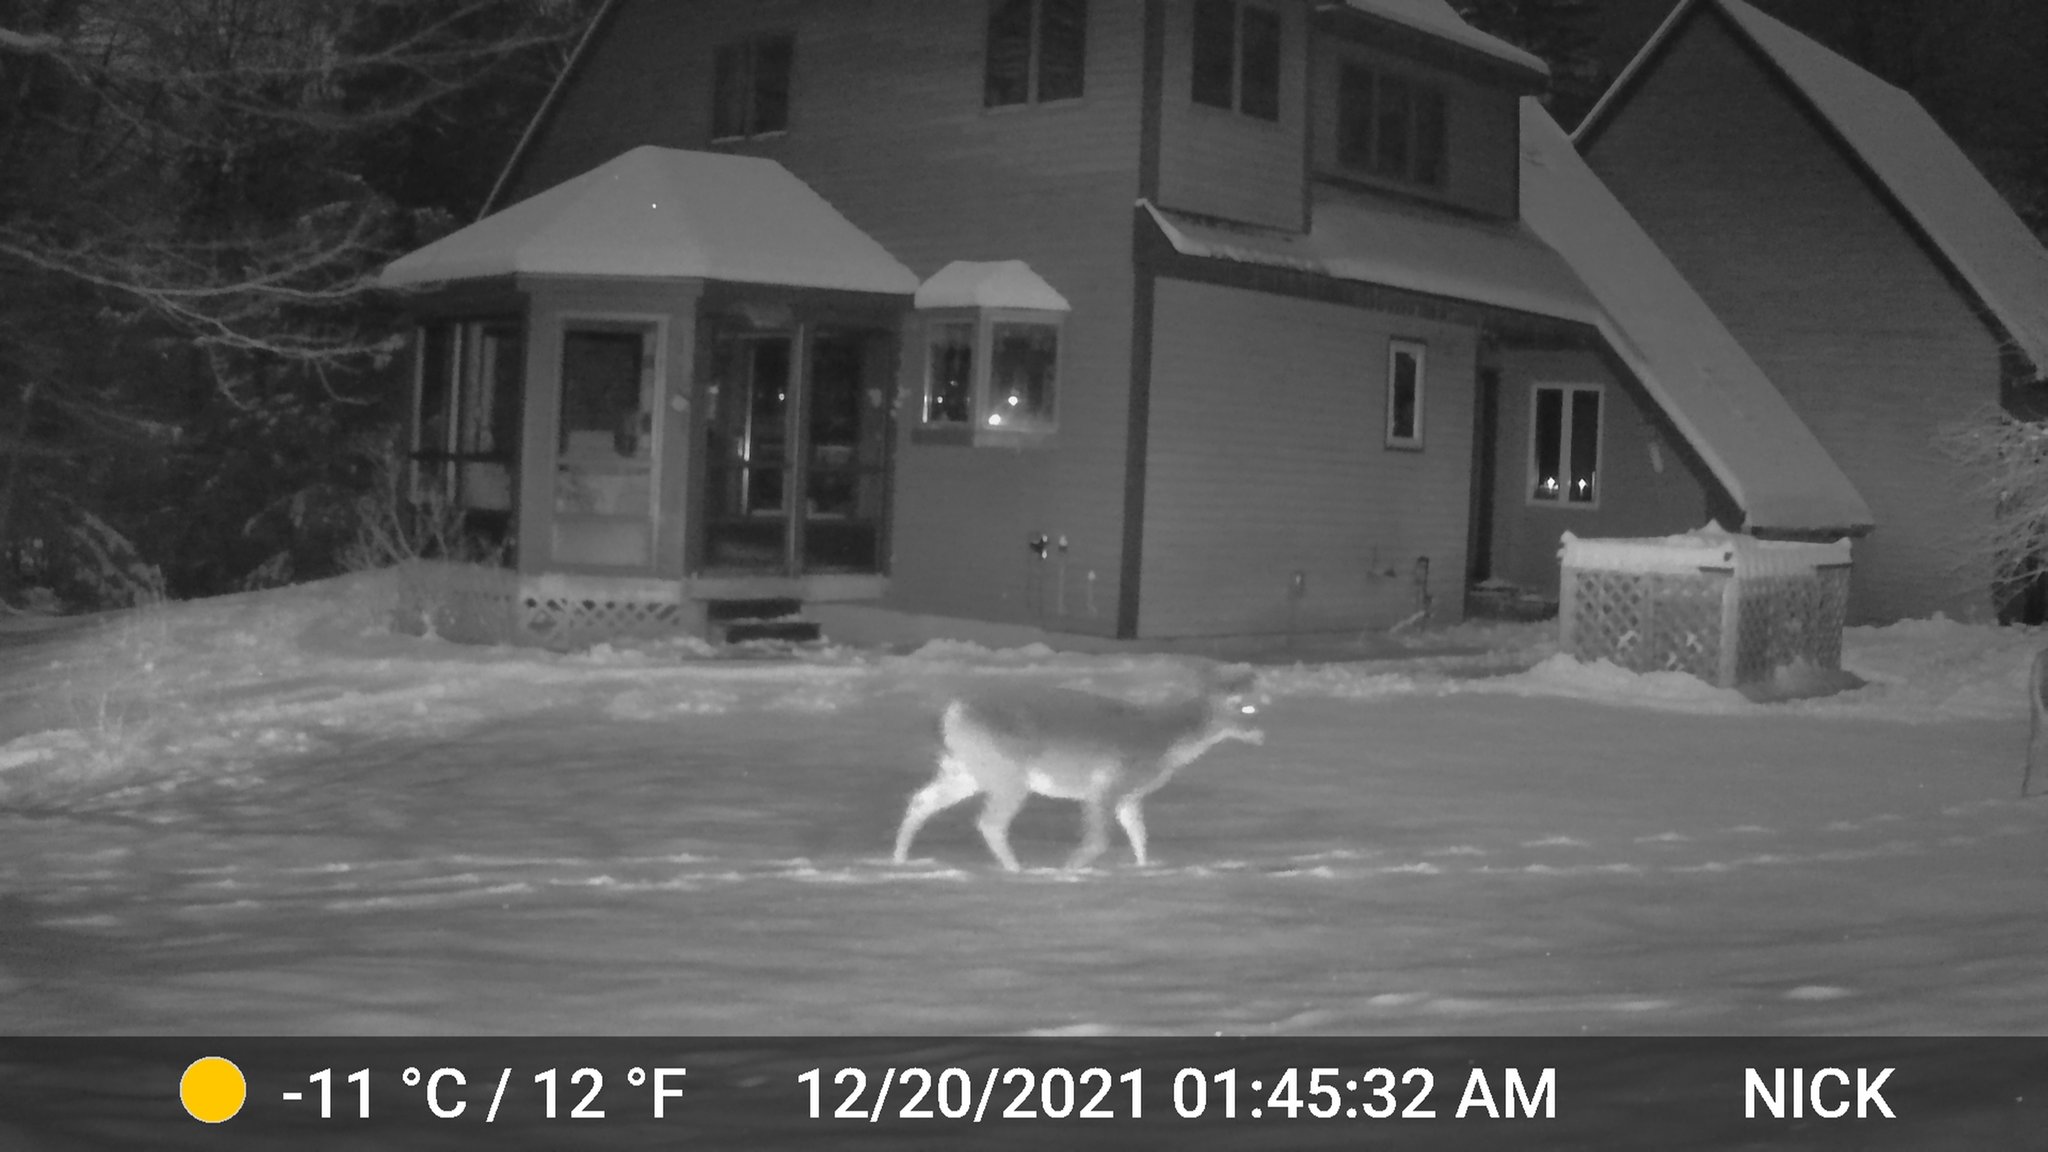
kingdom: Animalia
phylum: Chordata
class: Mammalia
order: Artiodactyla
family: Cervidae
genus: Odocoileus
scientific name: Odocoileus virginianus
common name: White-tailed deer
